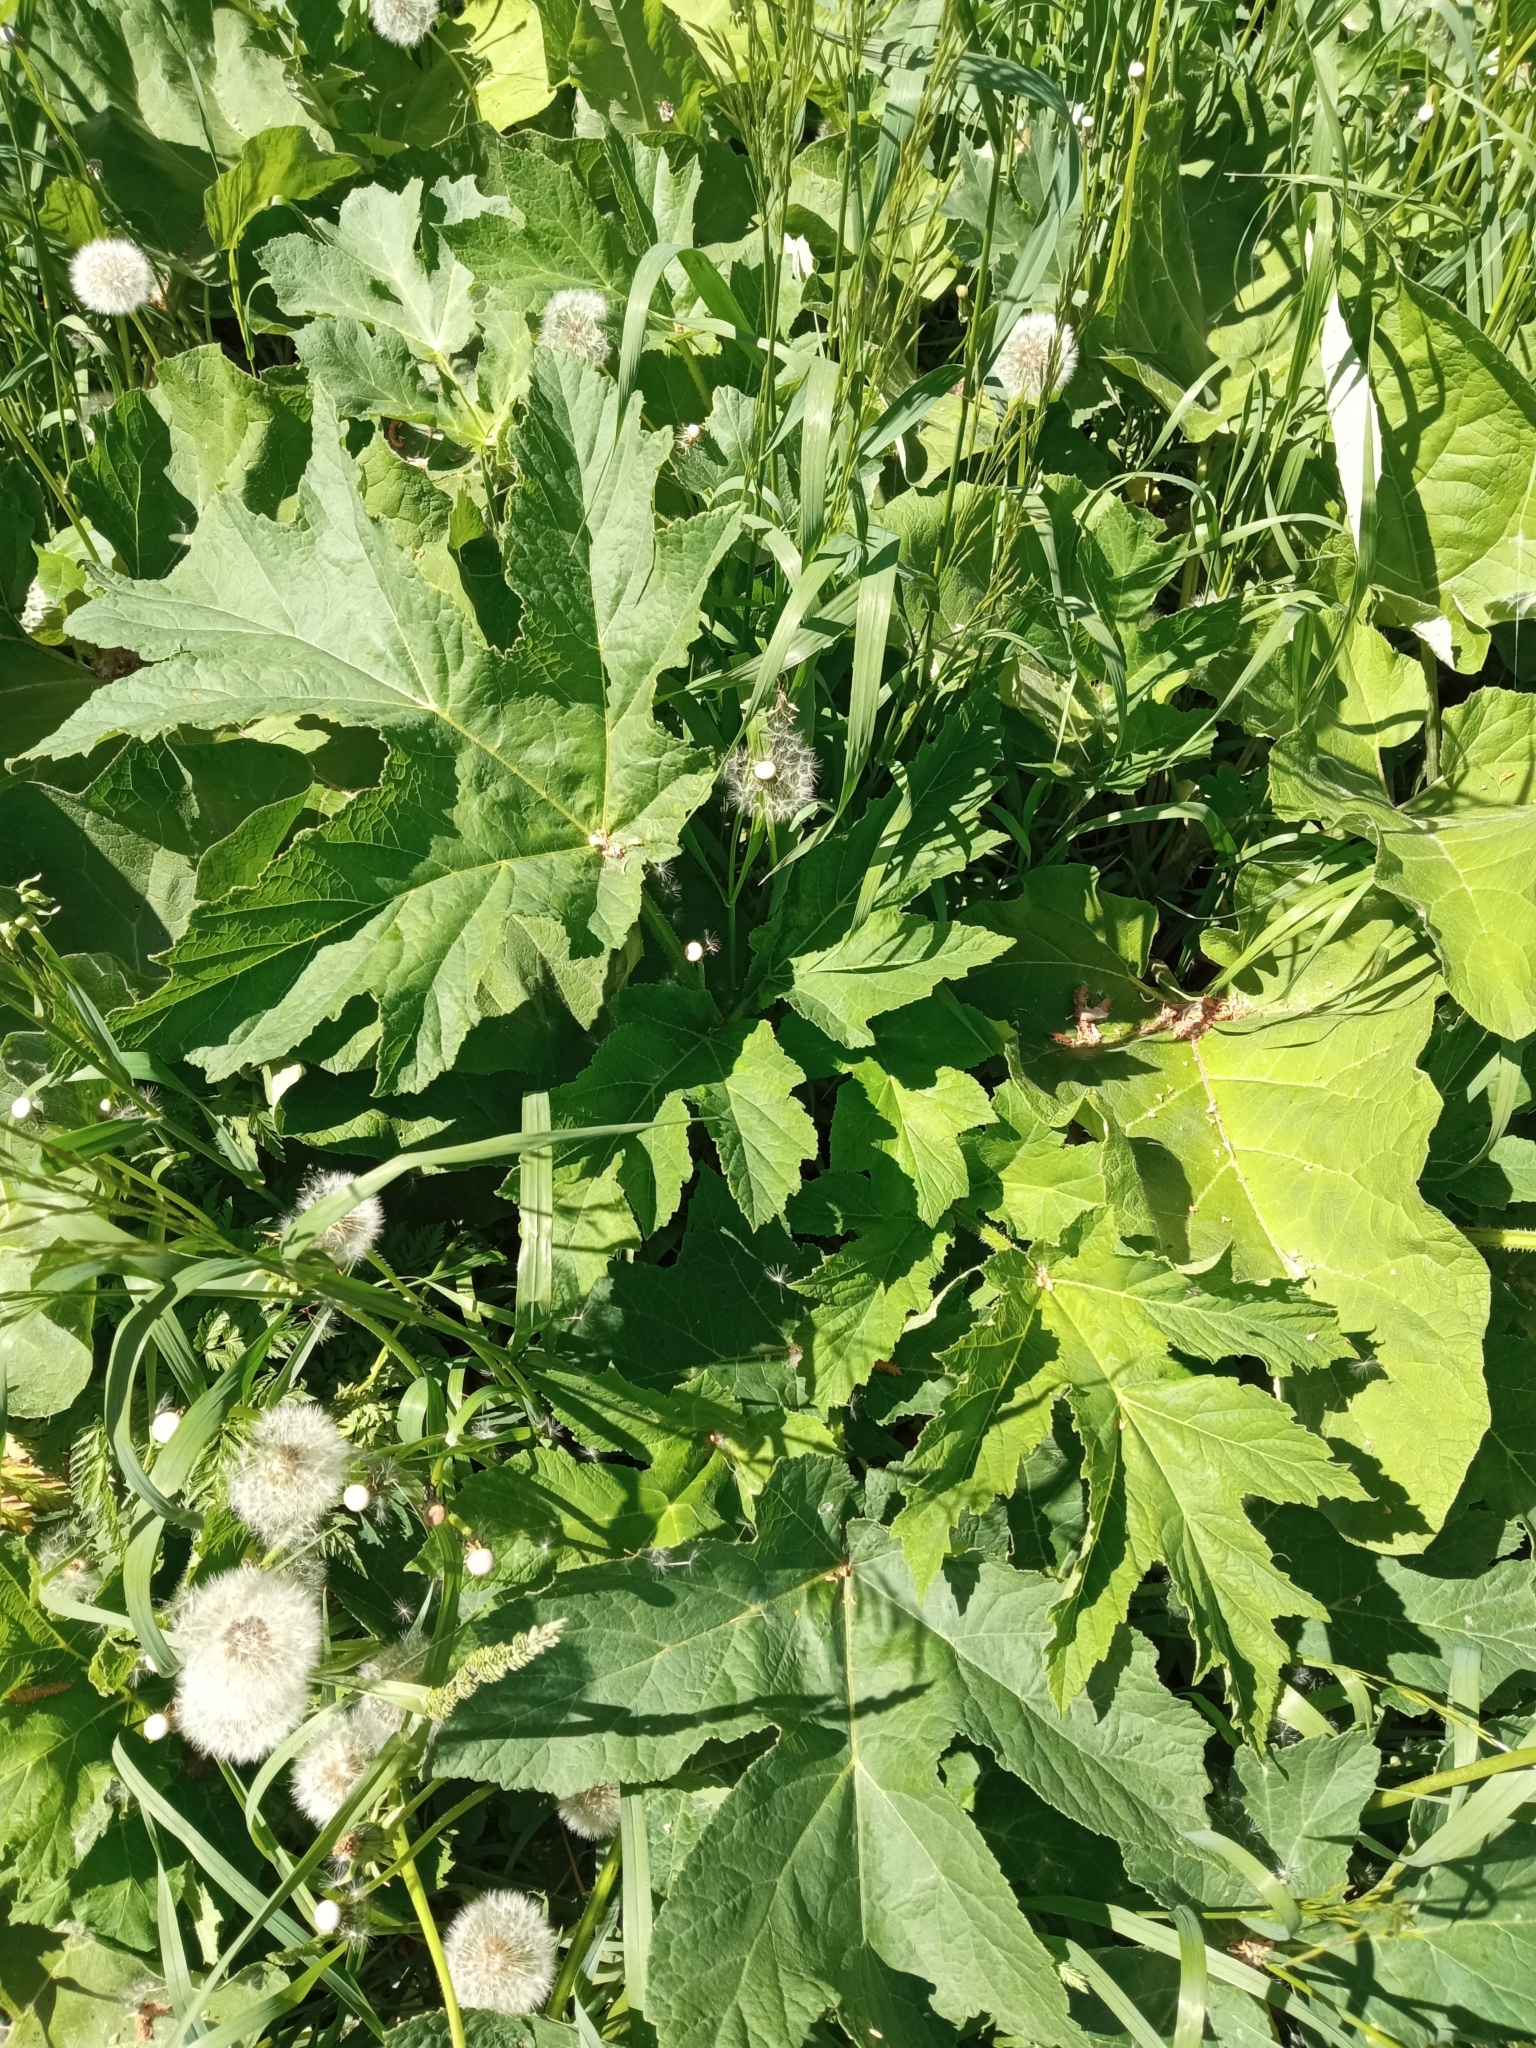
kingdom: Plantae
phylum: Tracheophyta
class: Magnoliopsida
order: Apiales
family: Apiaceae
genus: Heracleum
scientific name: Heracleum sphondylium
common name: Hogweed
